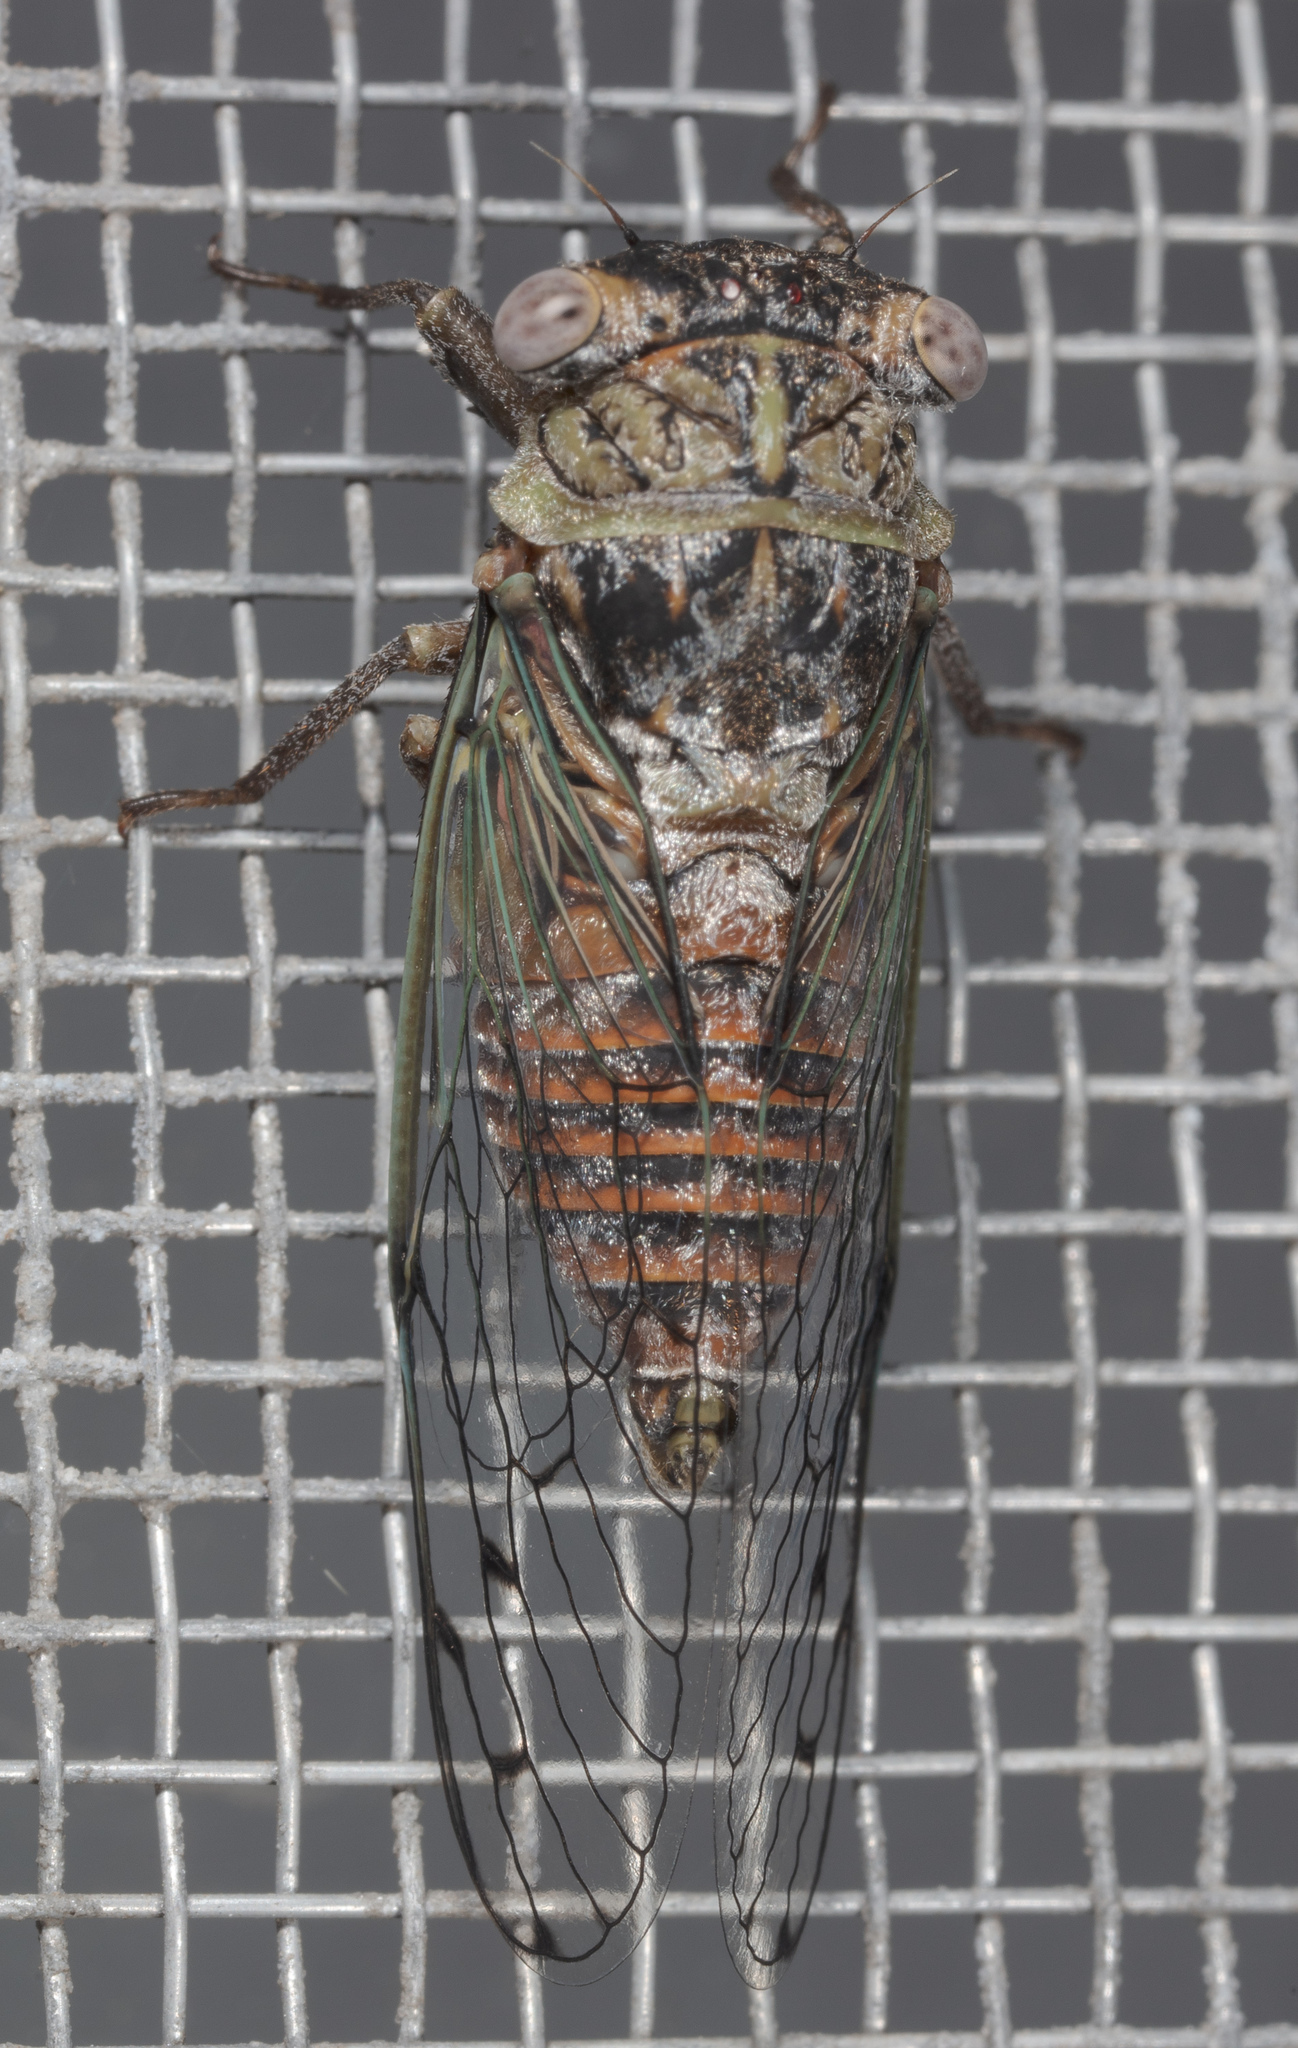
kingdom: Animalia
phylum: Arthropoda
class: Insecta
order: Hemiptera
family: Cicadidae
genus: Pacarina
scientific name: Pacarina puella
